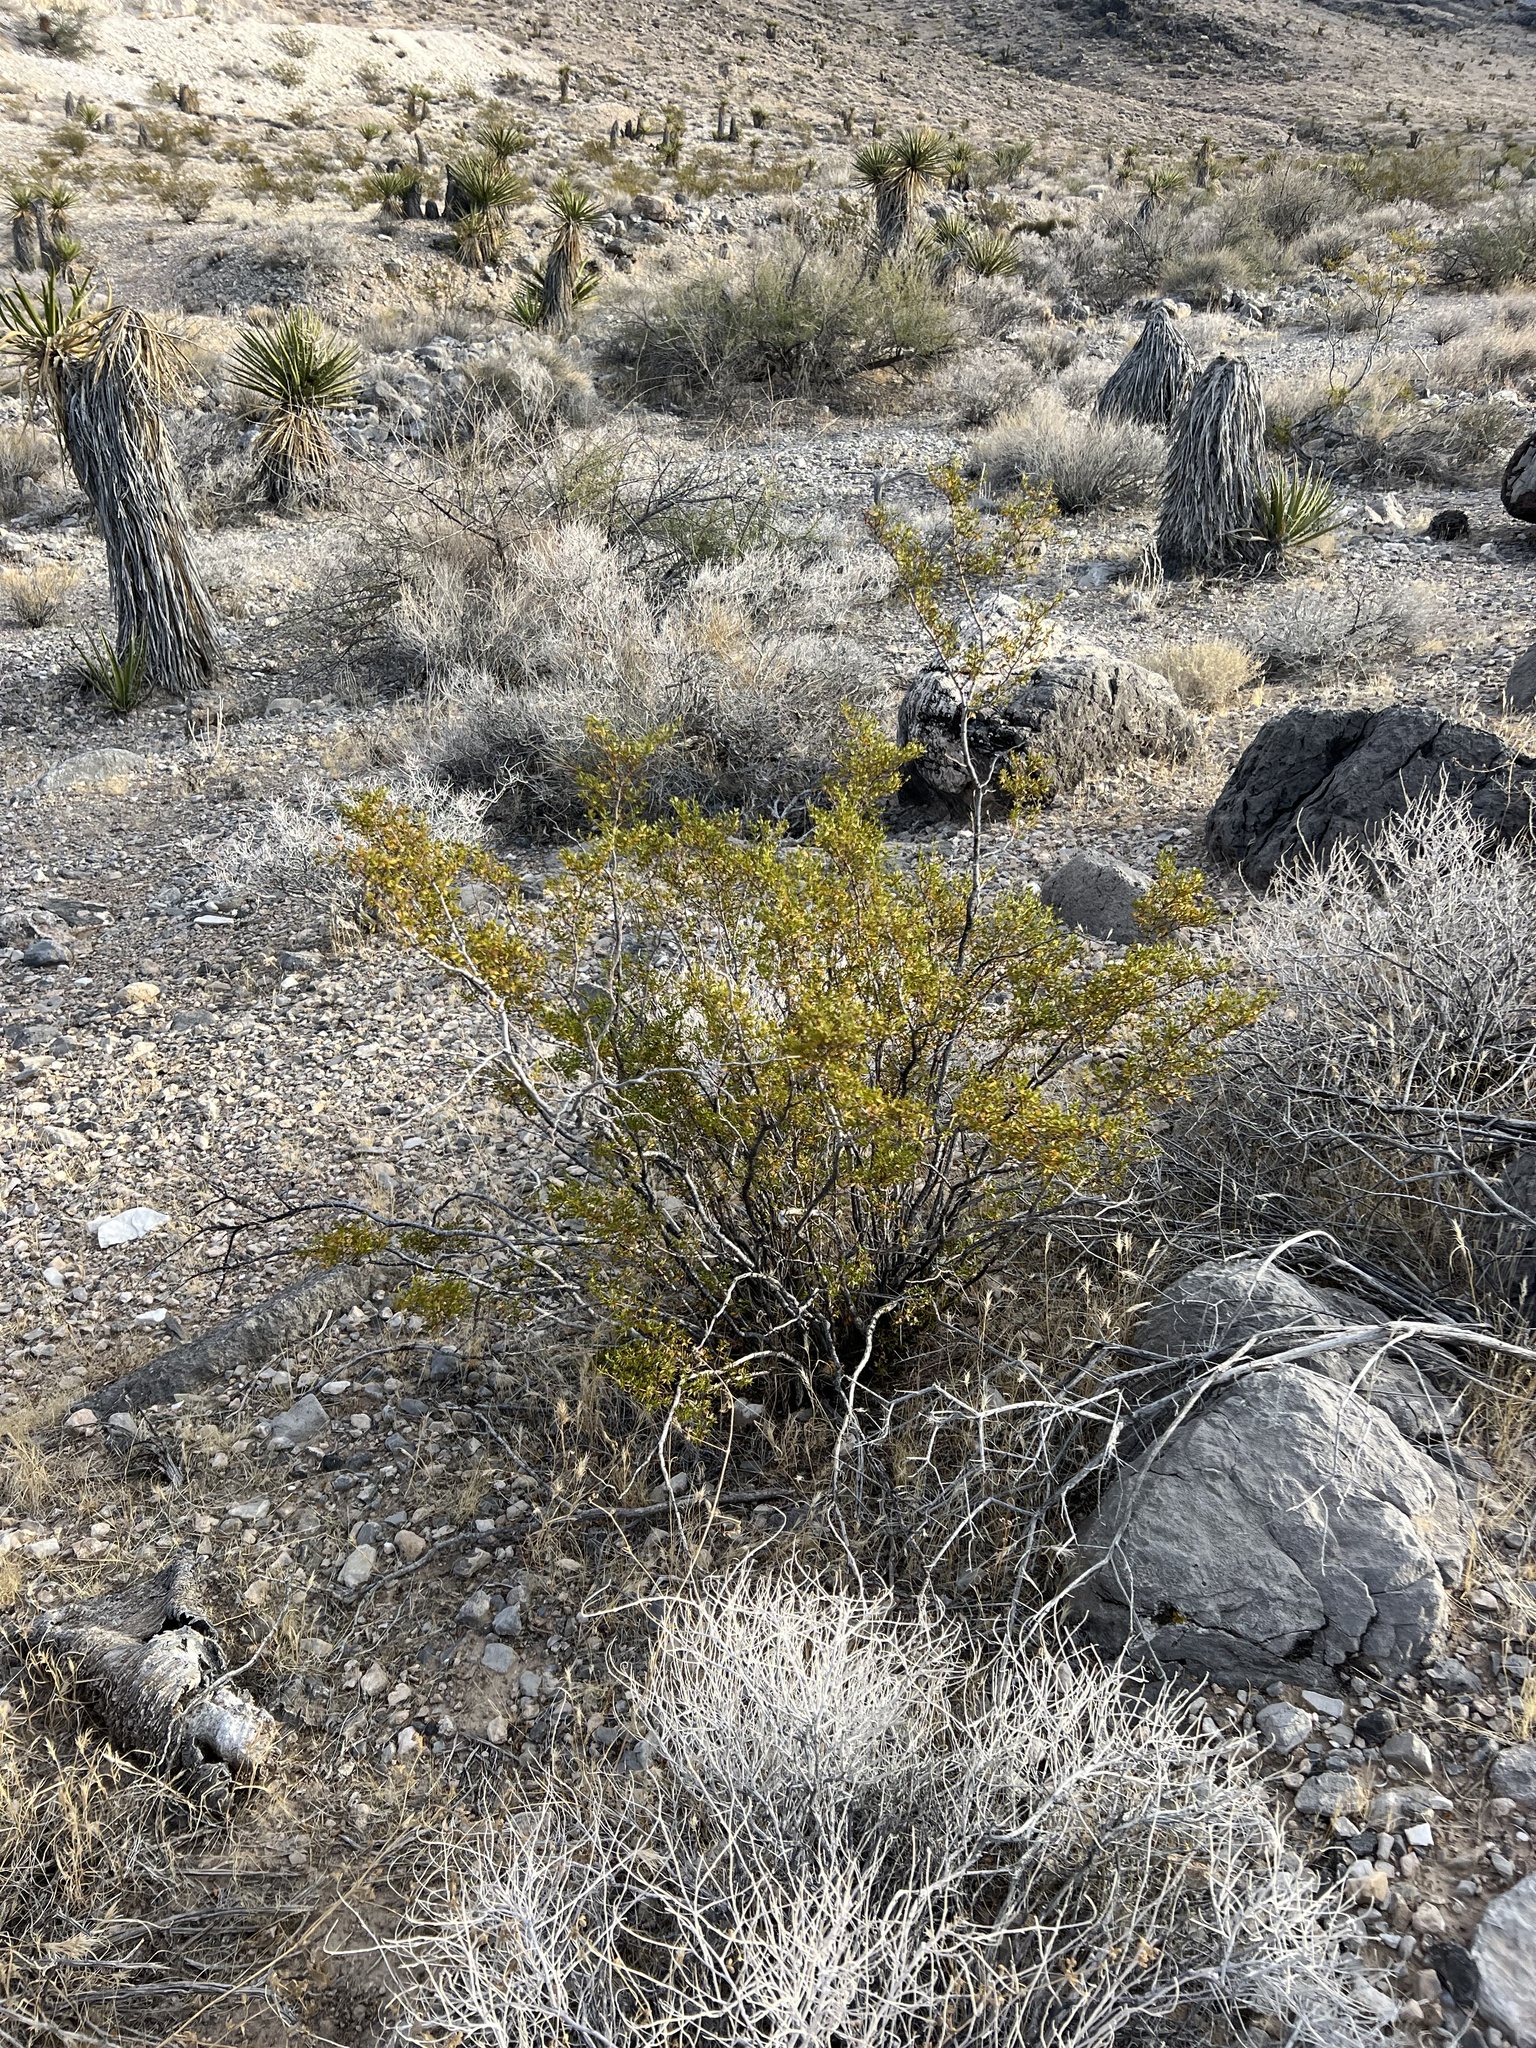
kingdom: Plantae
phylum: Tracheophyta
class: Magnoliopsida
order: Zygophyllales
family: Zygophyllaceae
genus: Larrea
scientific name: Larrea tridentata
